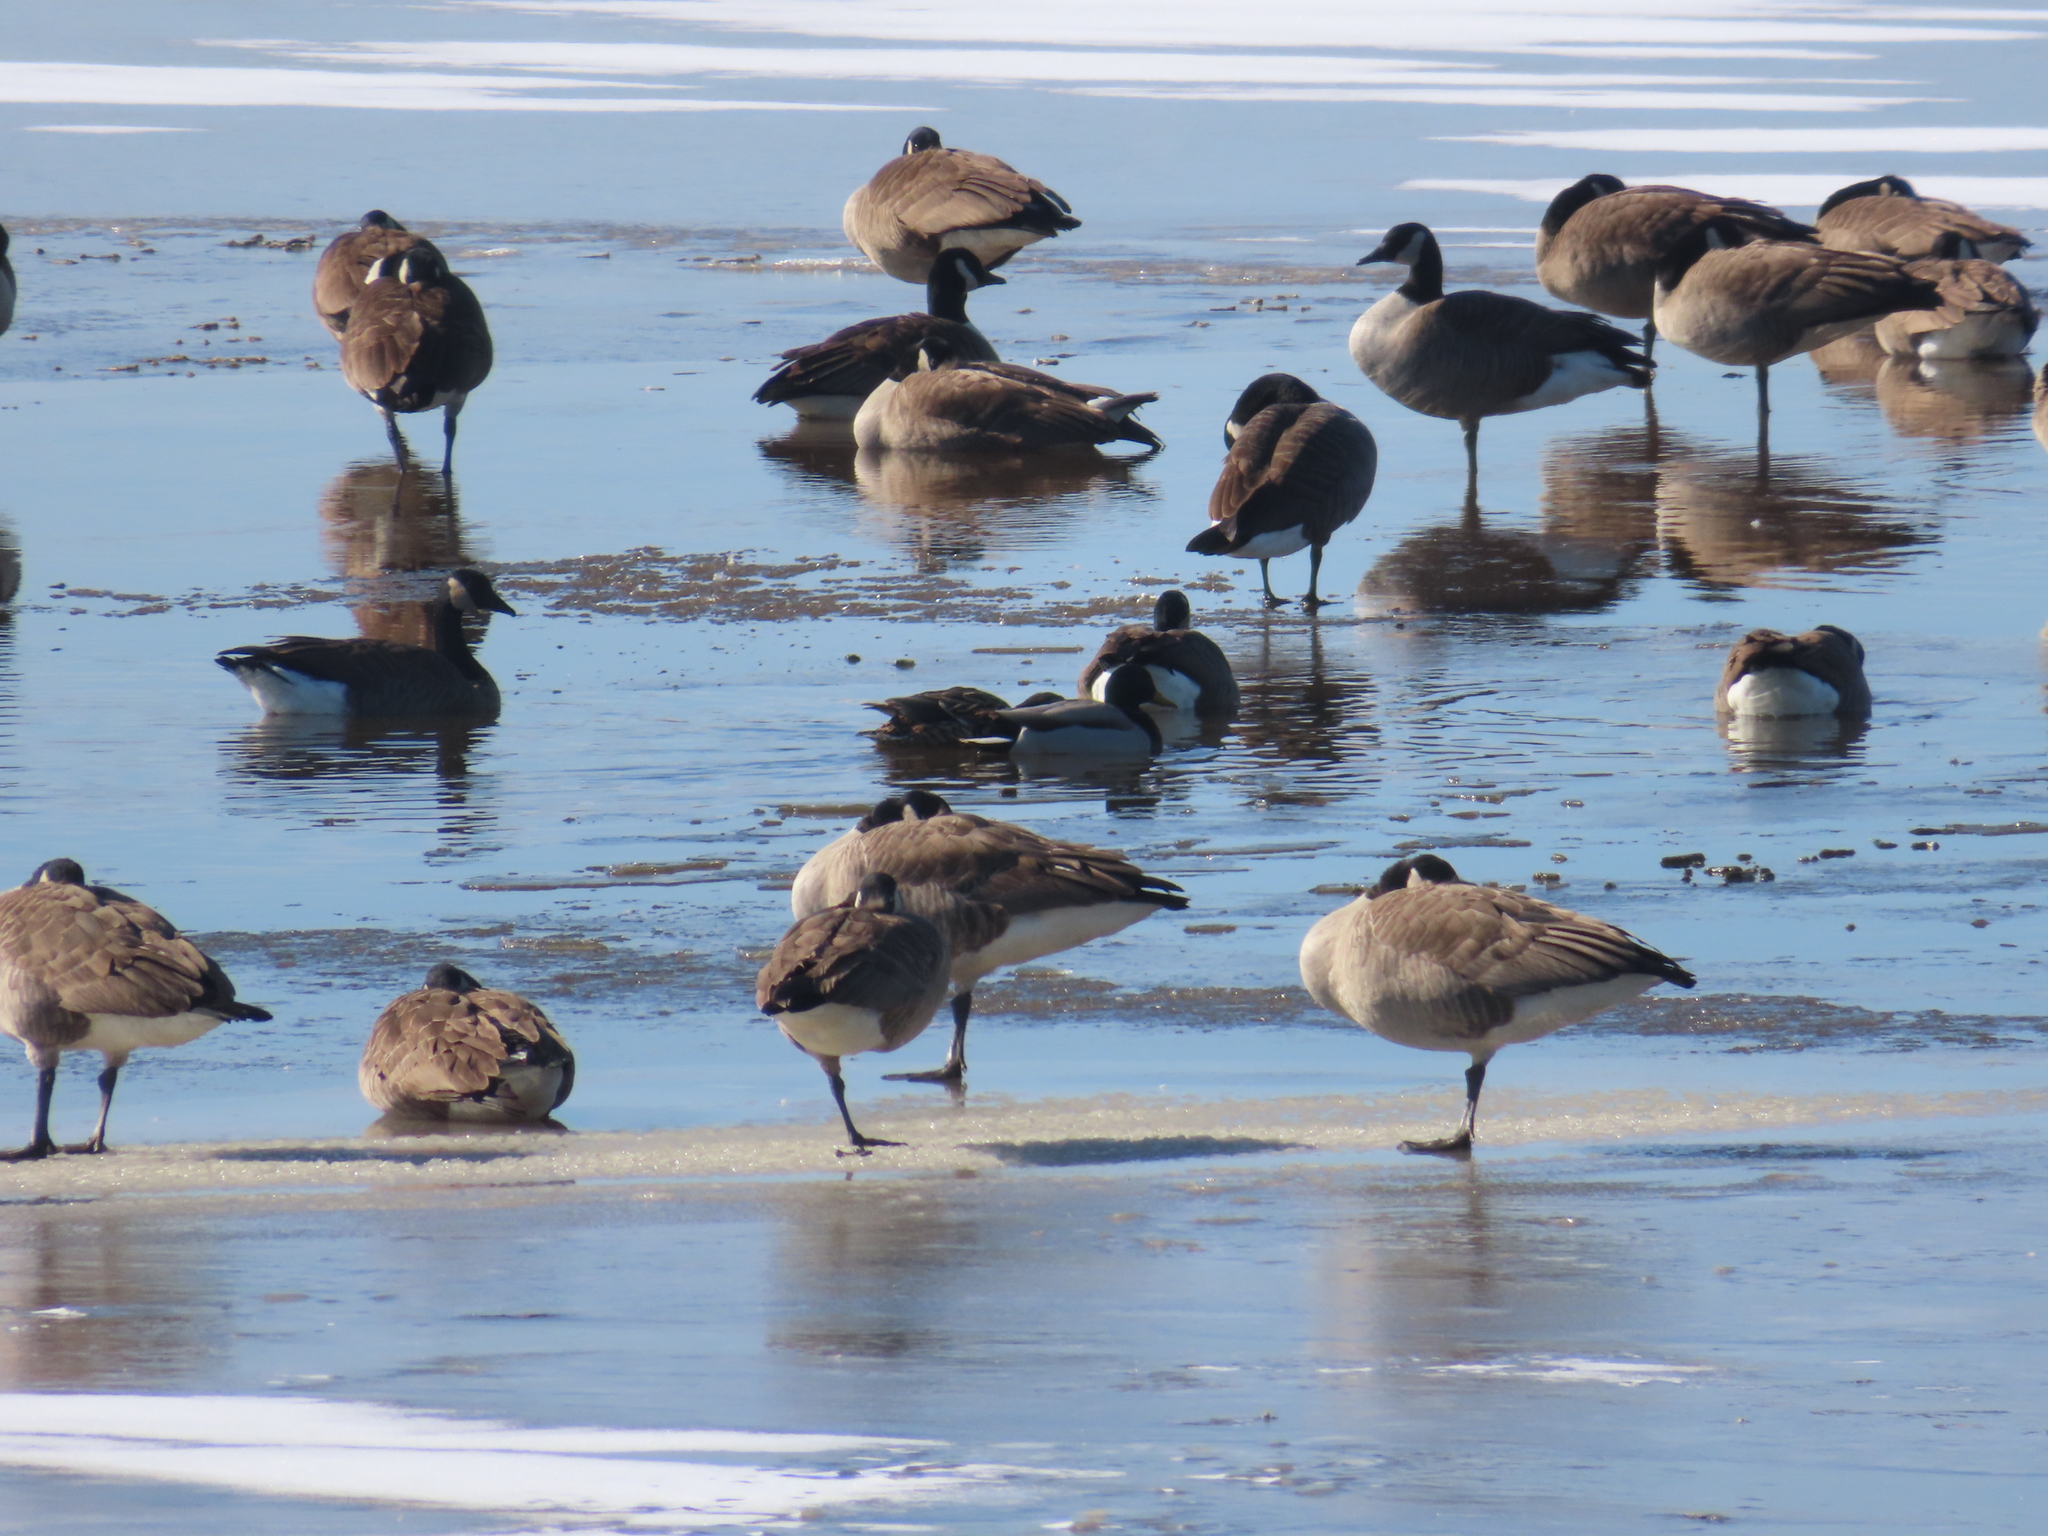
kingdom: Animalia
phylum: Chordata
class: Aves
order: Anseriformes
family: Anatidae
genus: Anas
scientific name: Anas platyrhynchos
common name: Mallard
